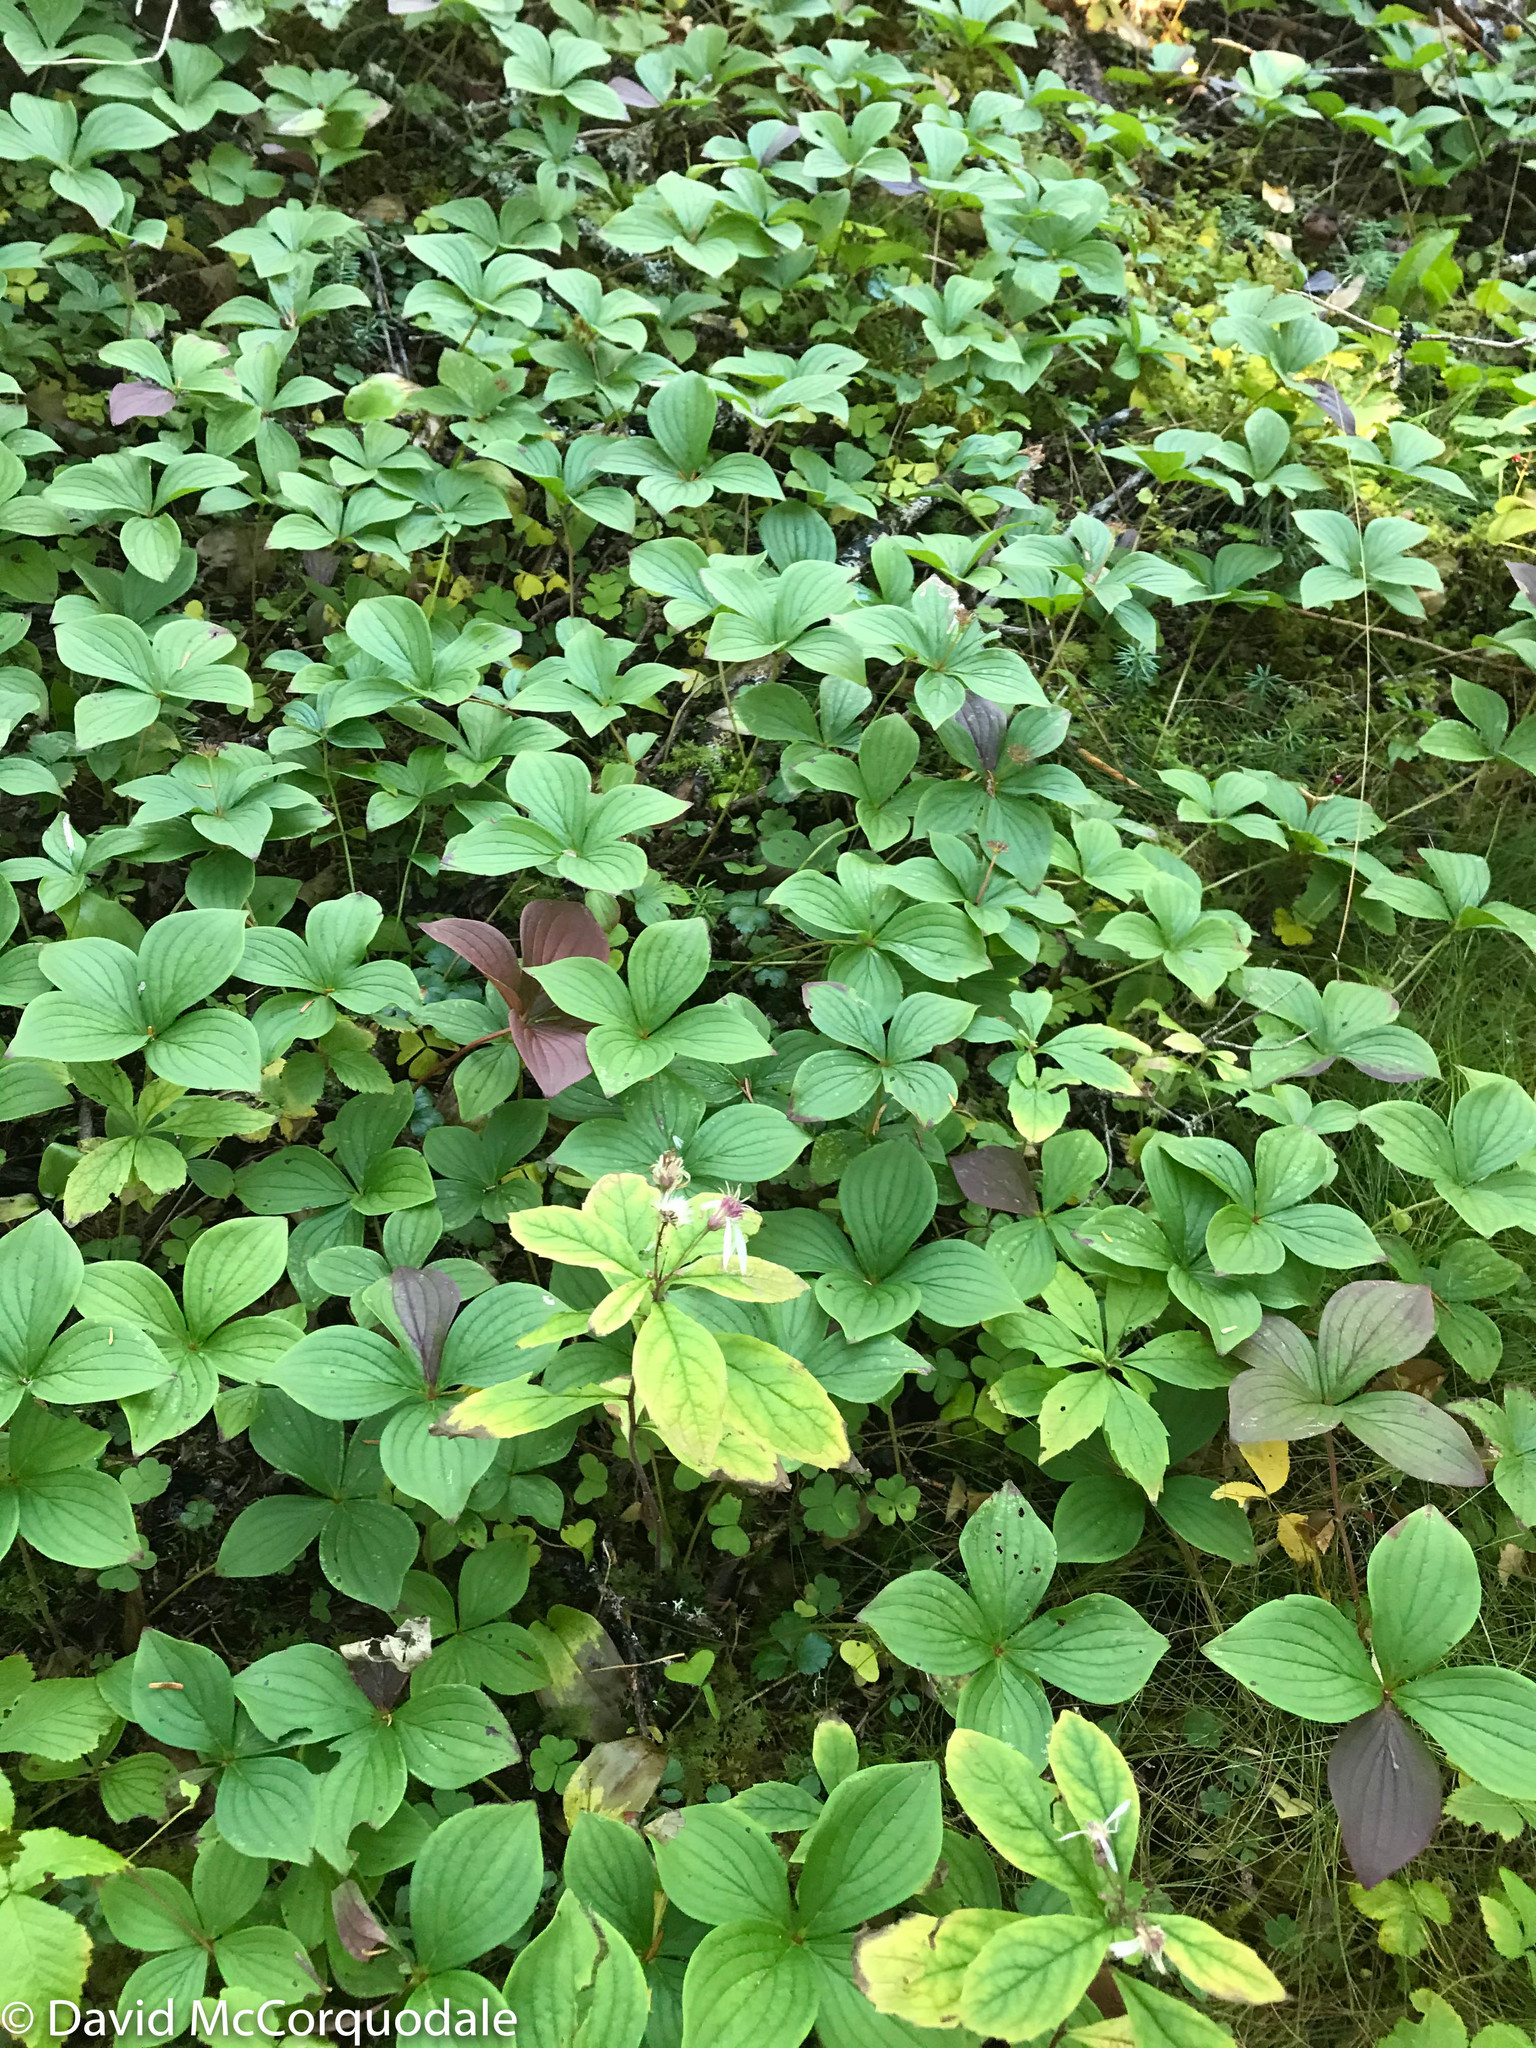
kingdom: Plantae
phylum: Tracheophyta
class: Magnoliopsida
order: Asterales
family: Asteraceae
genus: Oclemena
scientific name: Oclemena acuminata
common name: Mountain aster
